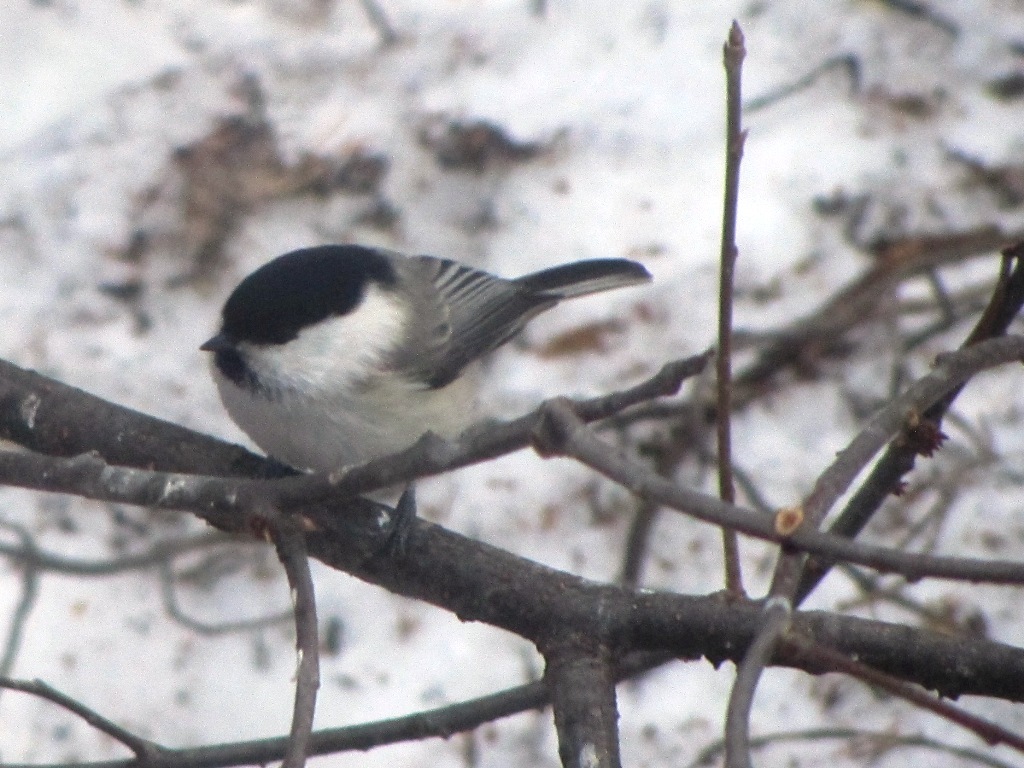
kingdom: Animalia
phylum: Chordata
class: Aves
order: Passeriformes
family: Paridae
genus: Poecile
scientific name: Poecile montanus
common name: Willow tit
